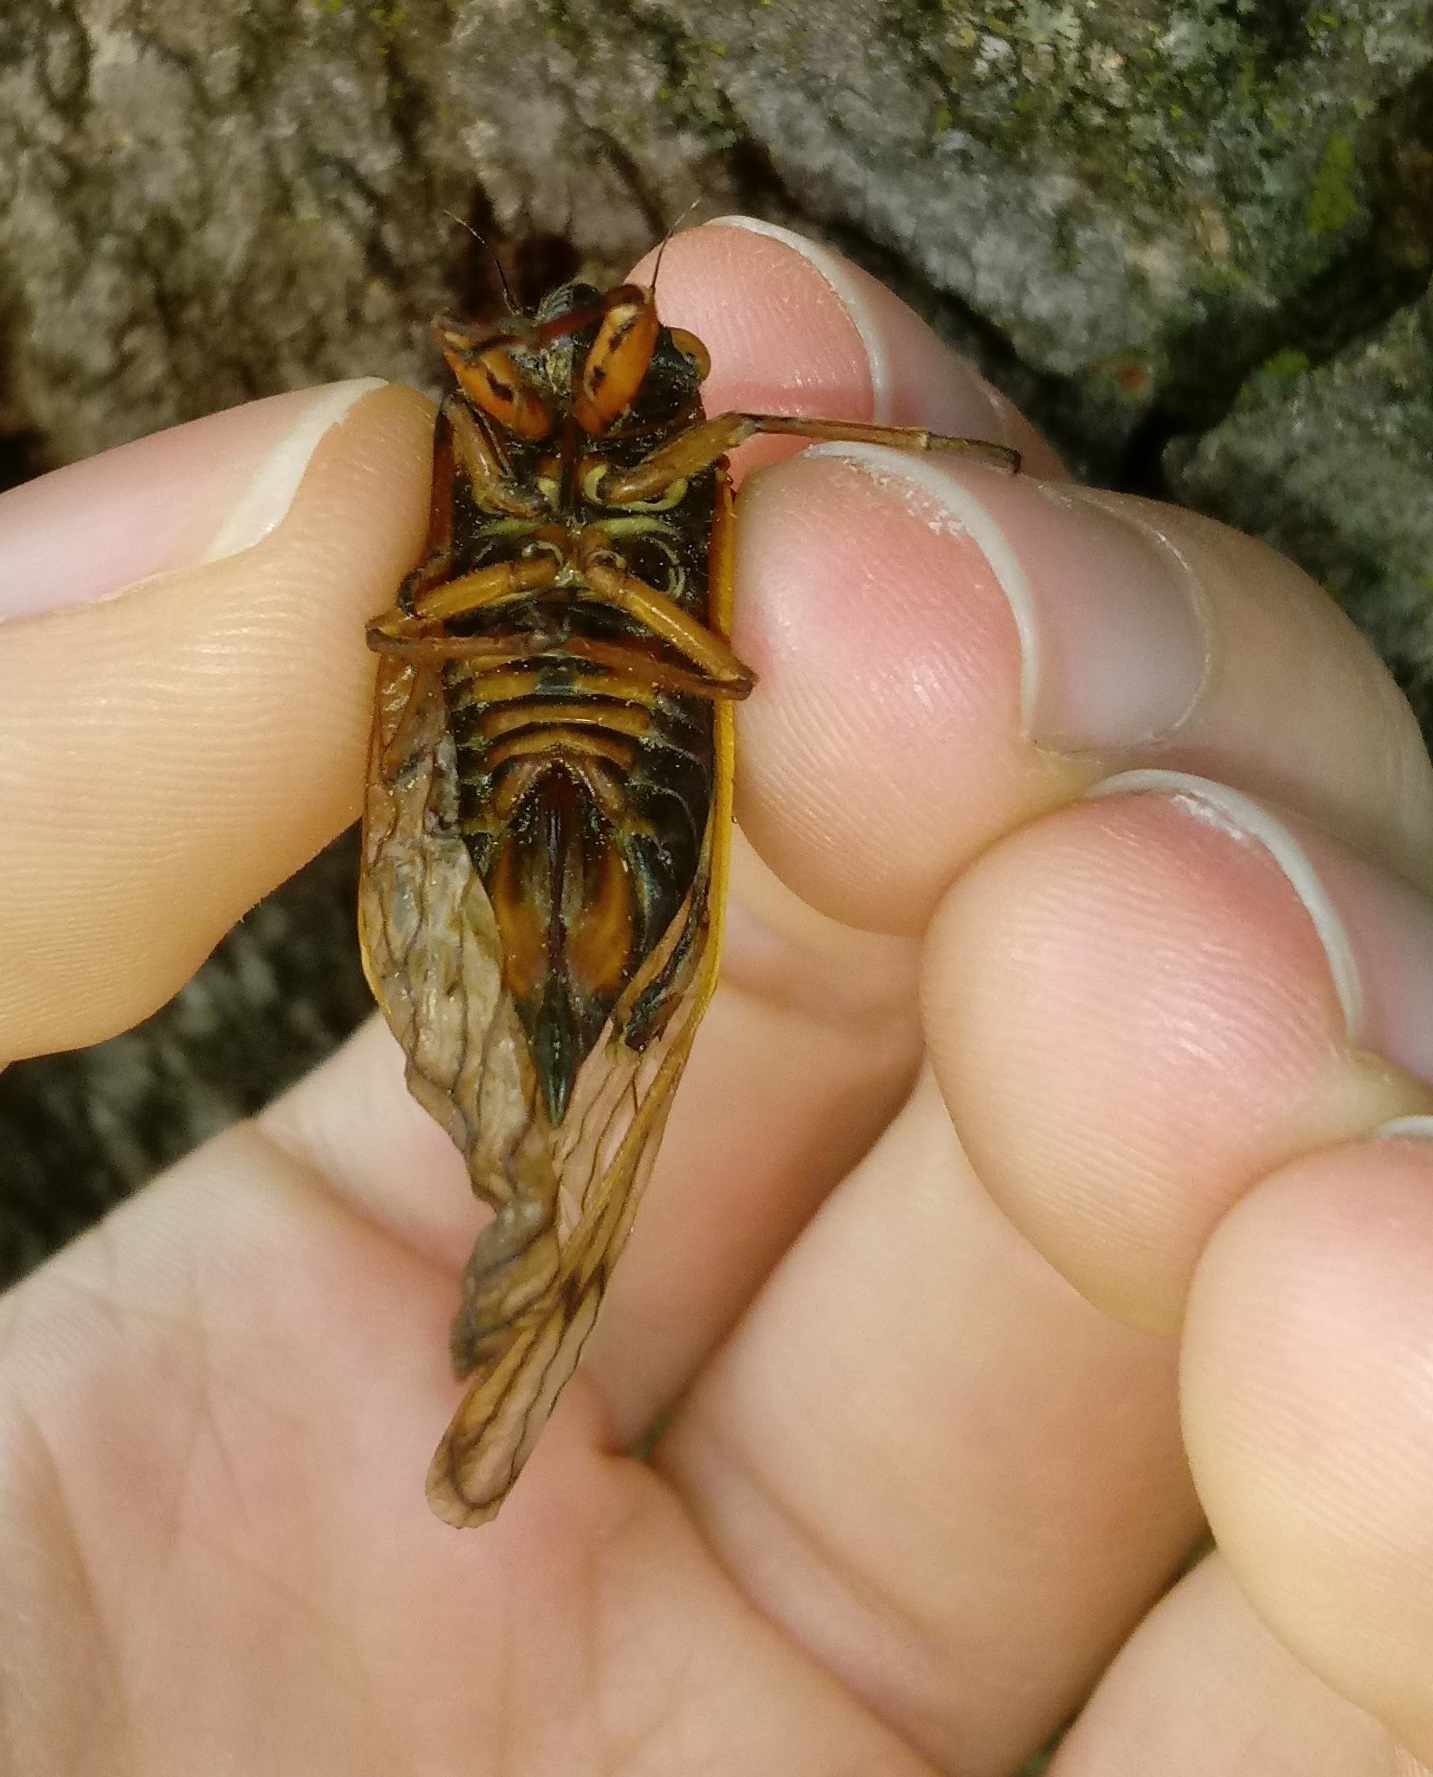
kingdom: Animalia
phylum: Arthropoda
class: Insecta
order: Hemiptera
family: Cicadidae
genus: Magicicada
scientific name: Magicicada septendecim
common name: Periodical cicada
